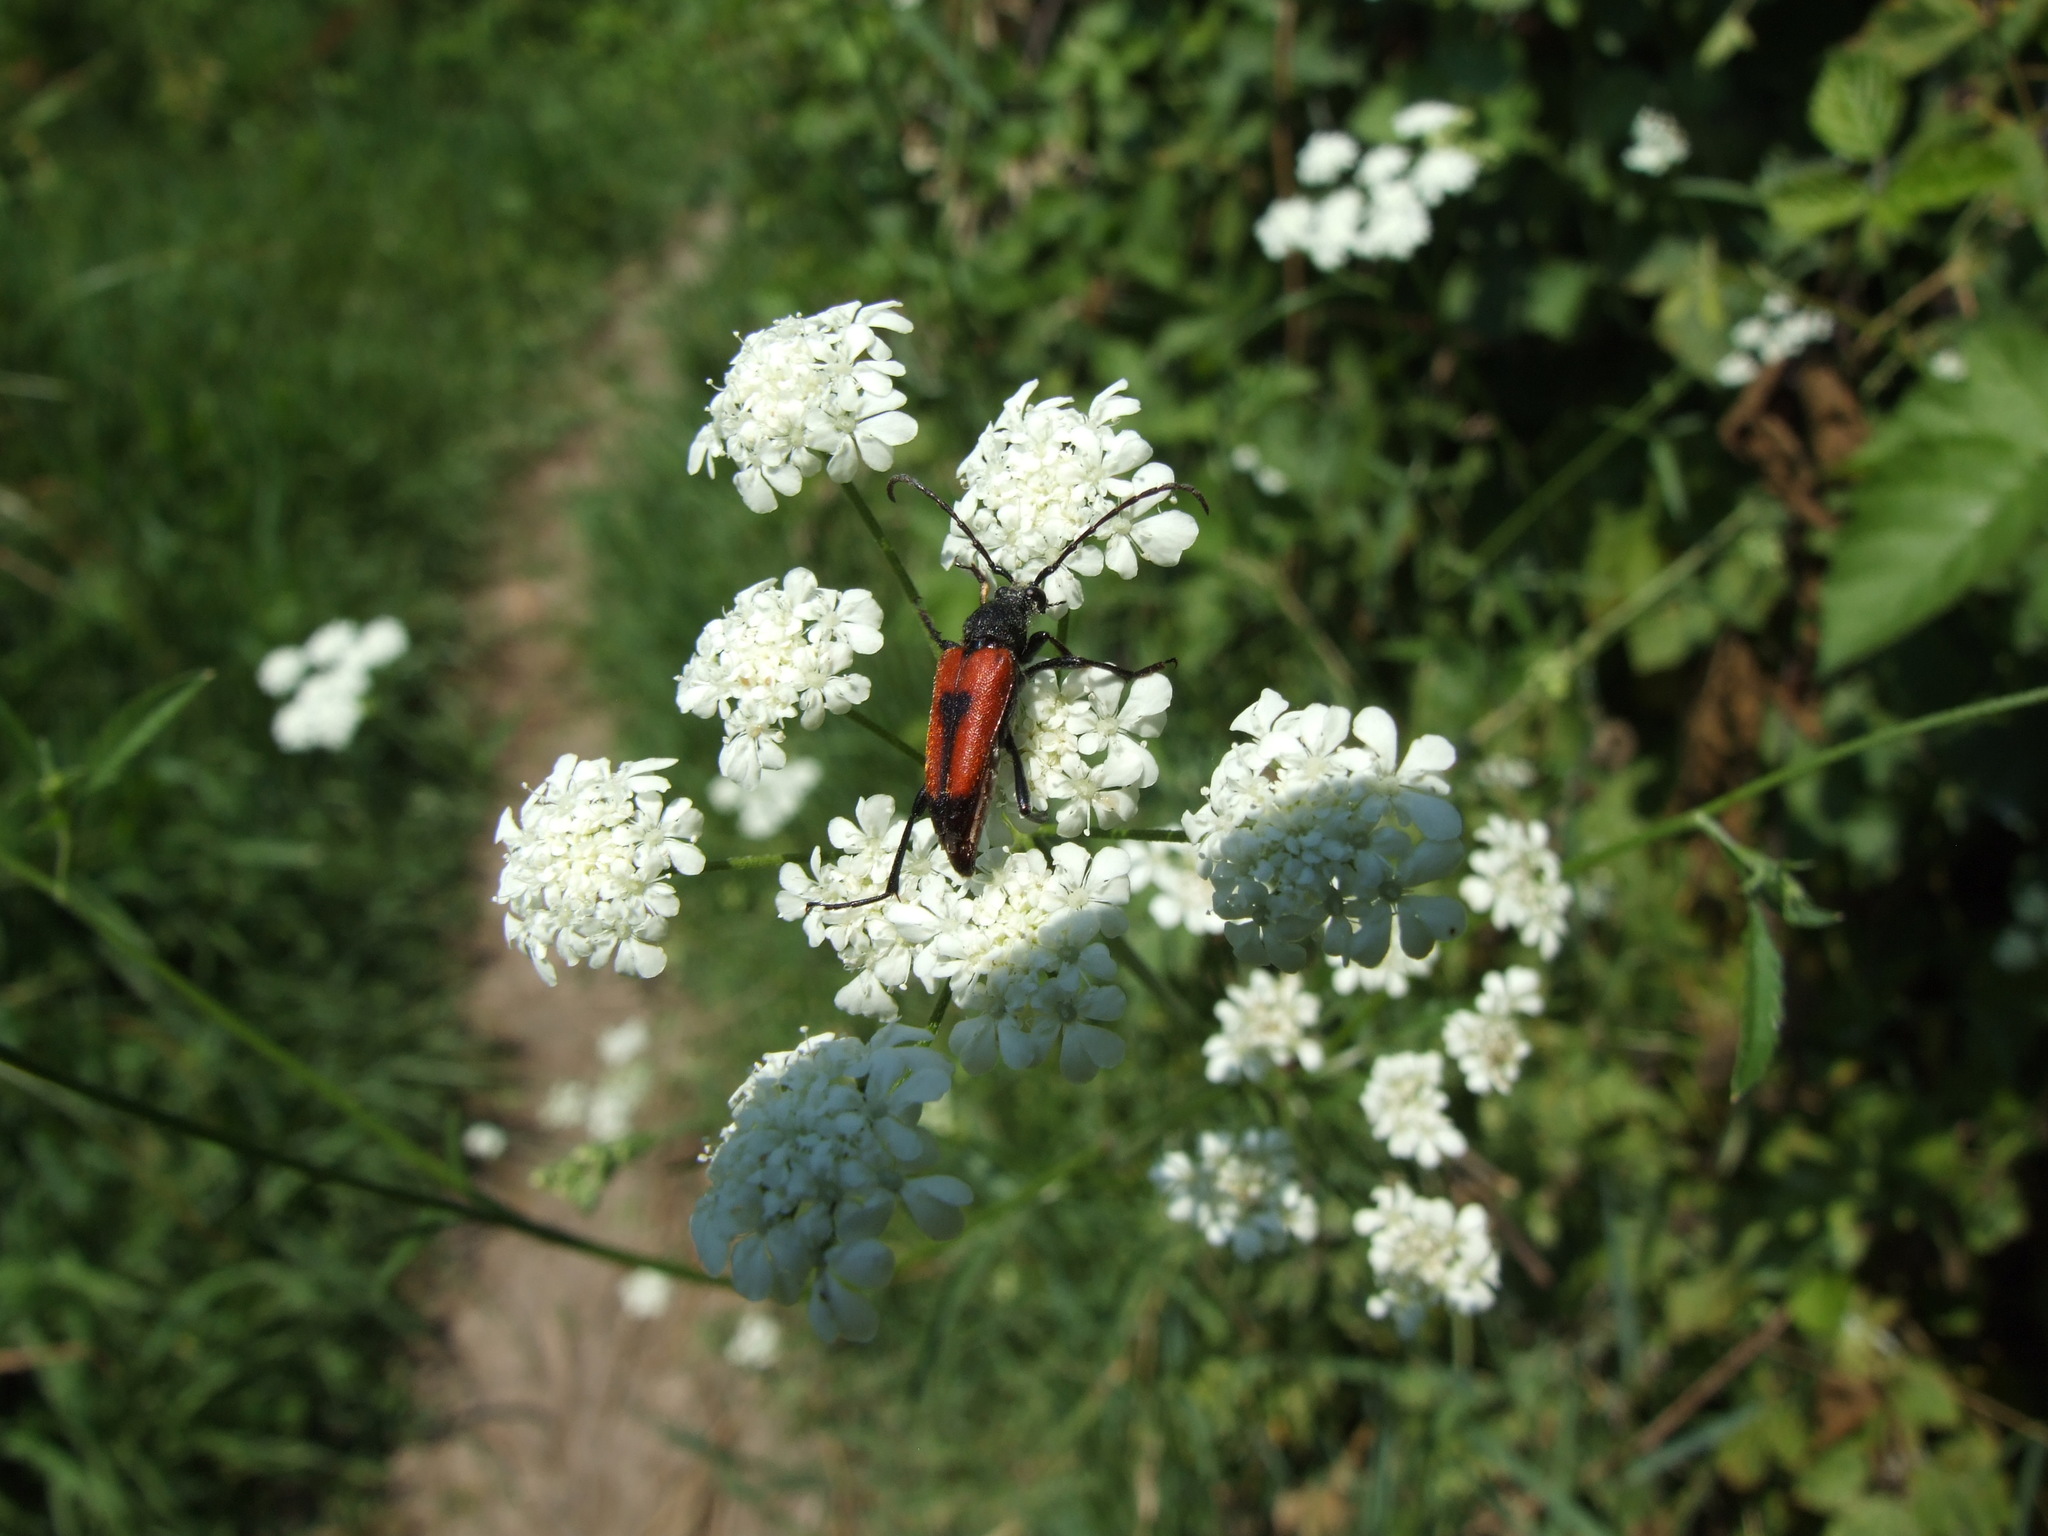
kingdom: Animalia
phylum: Arthropoda
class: Insecta
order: Coleoptera
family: Cerambycidae
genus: Stictoleptura
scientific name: Stictoleptura cordigera
